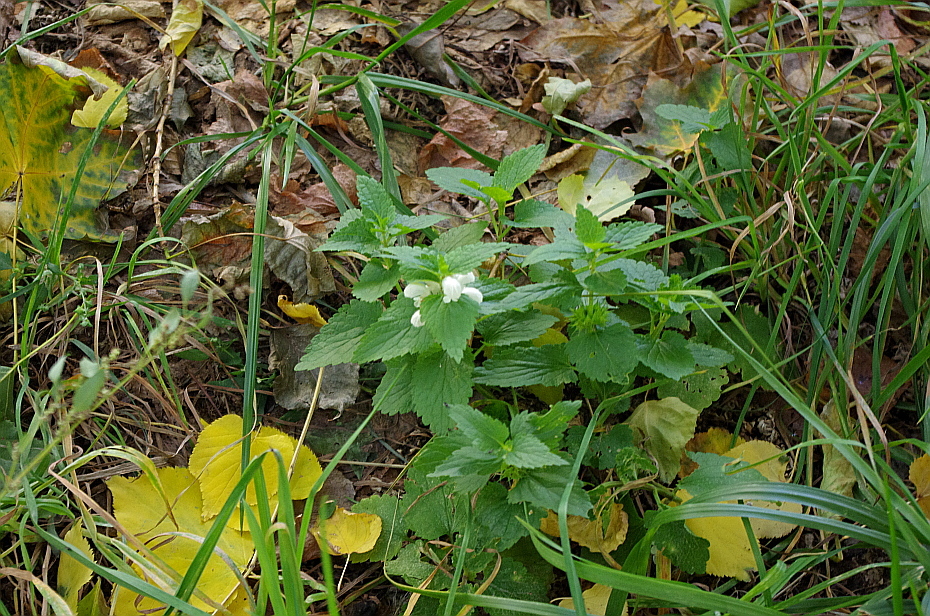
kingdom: Plantae
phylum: Tracheophyta
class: Magnoliopsida
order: Lamiales
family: Lamiaceae
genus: Lamium
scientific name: Lamium album
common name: White dead-nettle
